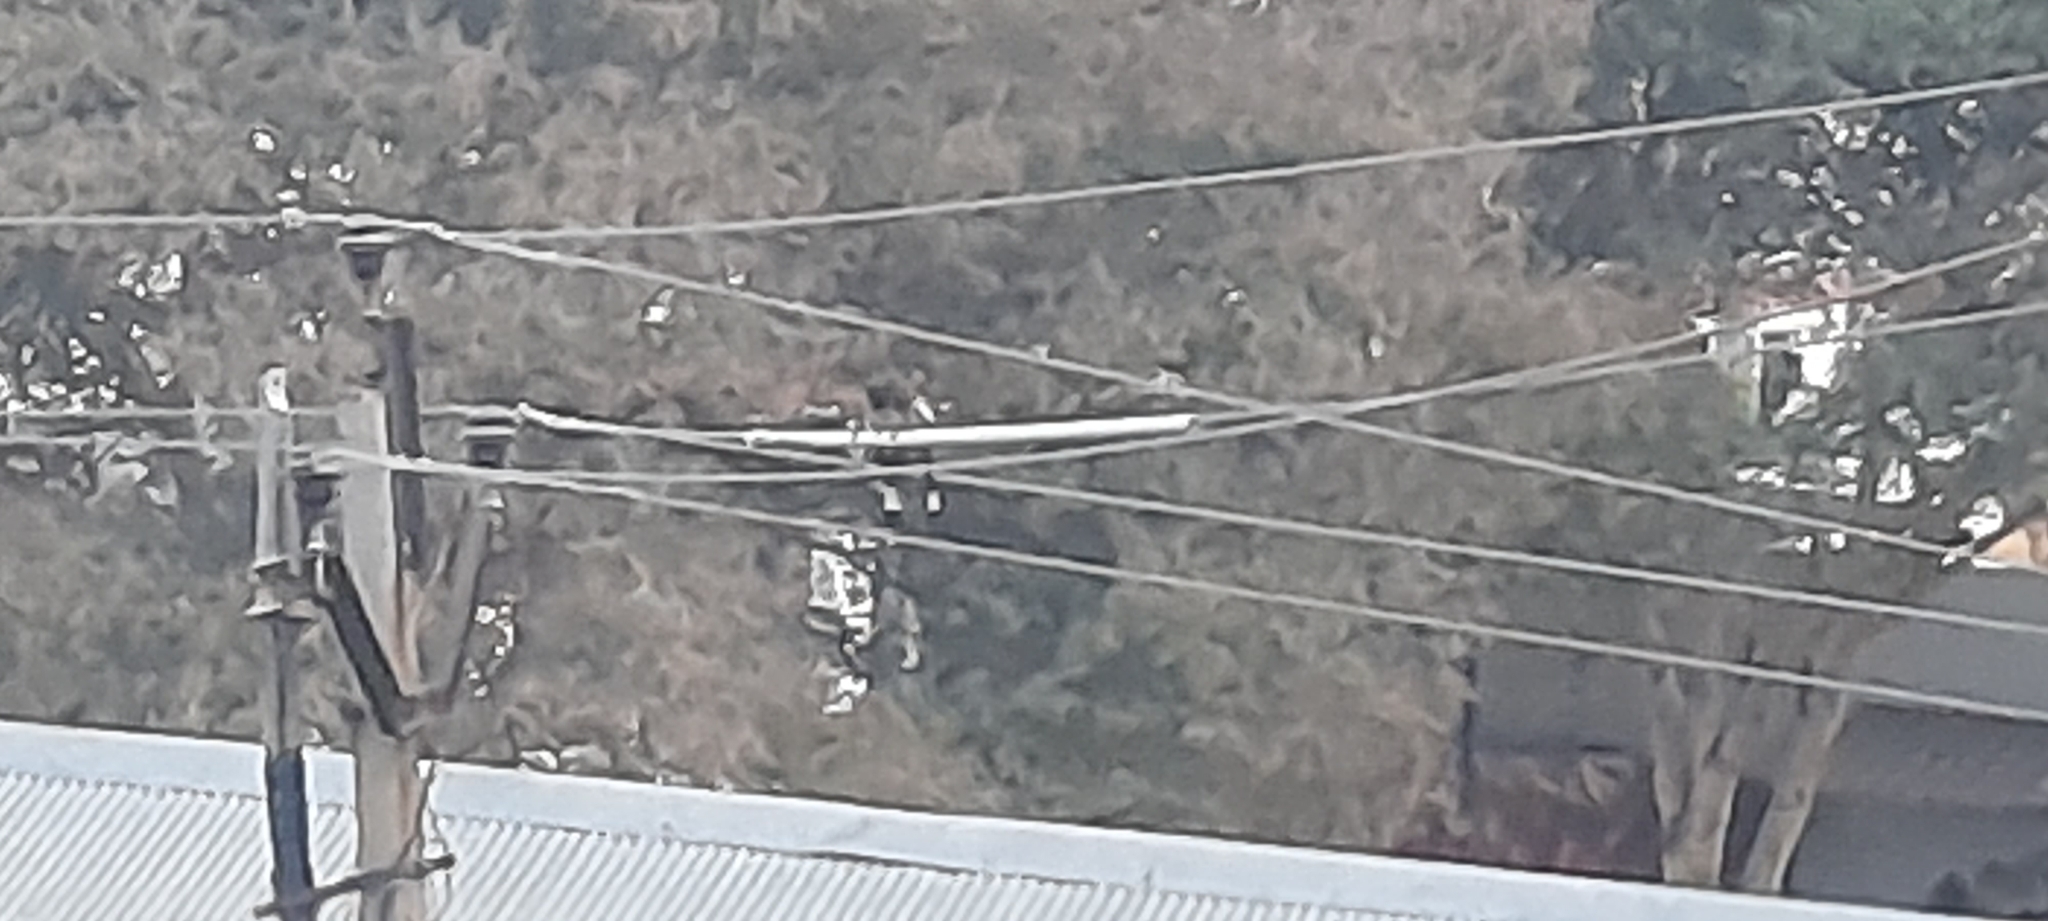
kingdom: Animalia
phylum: Chordata
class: Aves
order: Passeriformes
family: Corvidae
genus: Dendrocitta
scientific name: Dendrocitta vagabunda
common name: Rufous treepie
